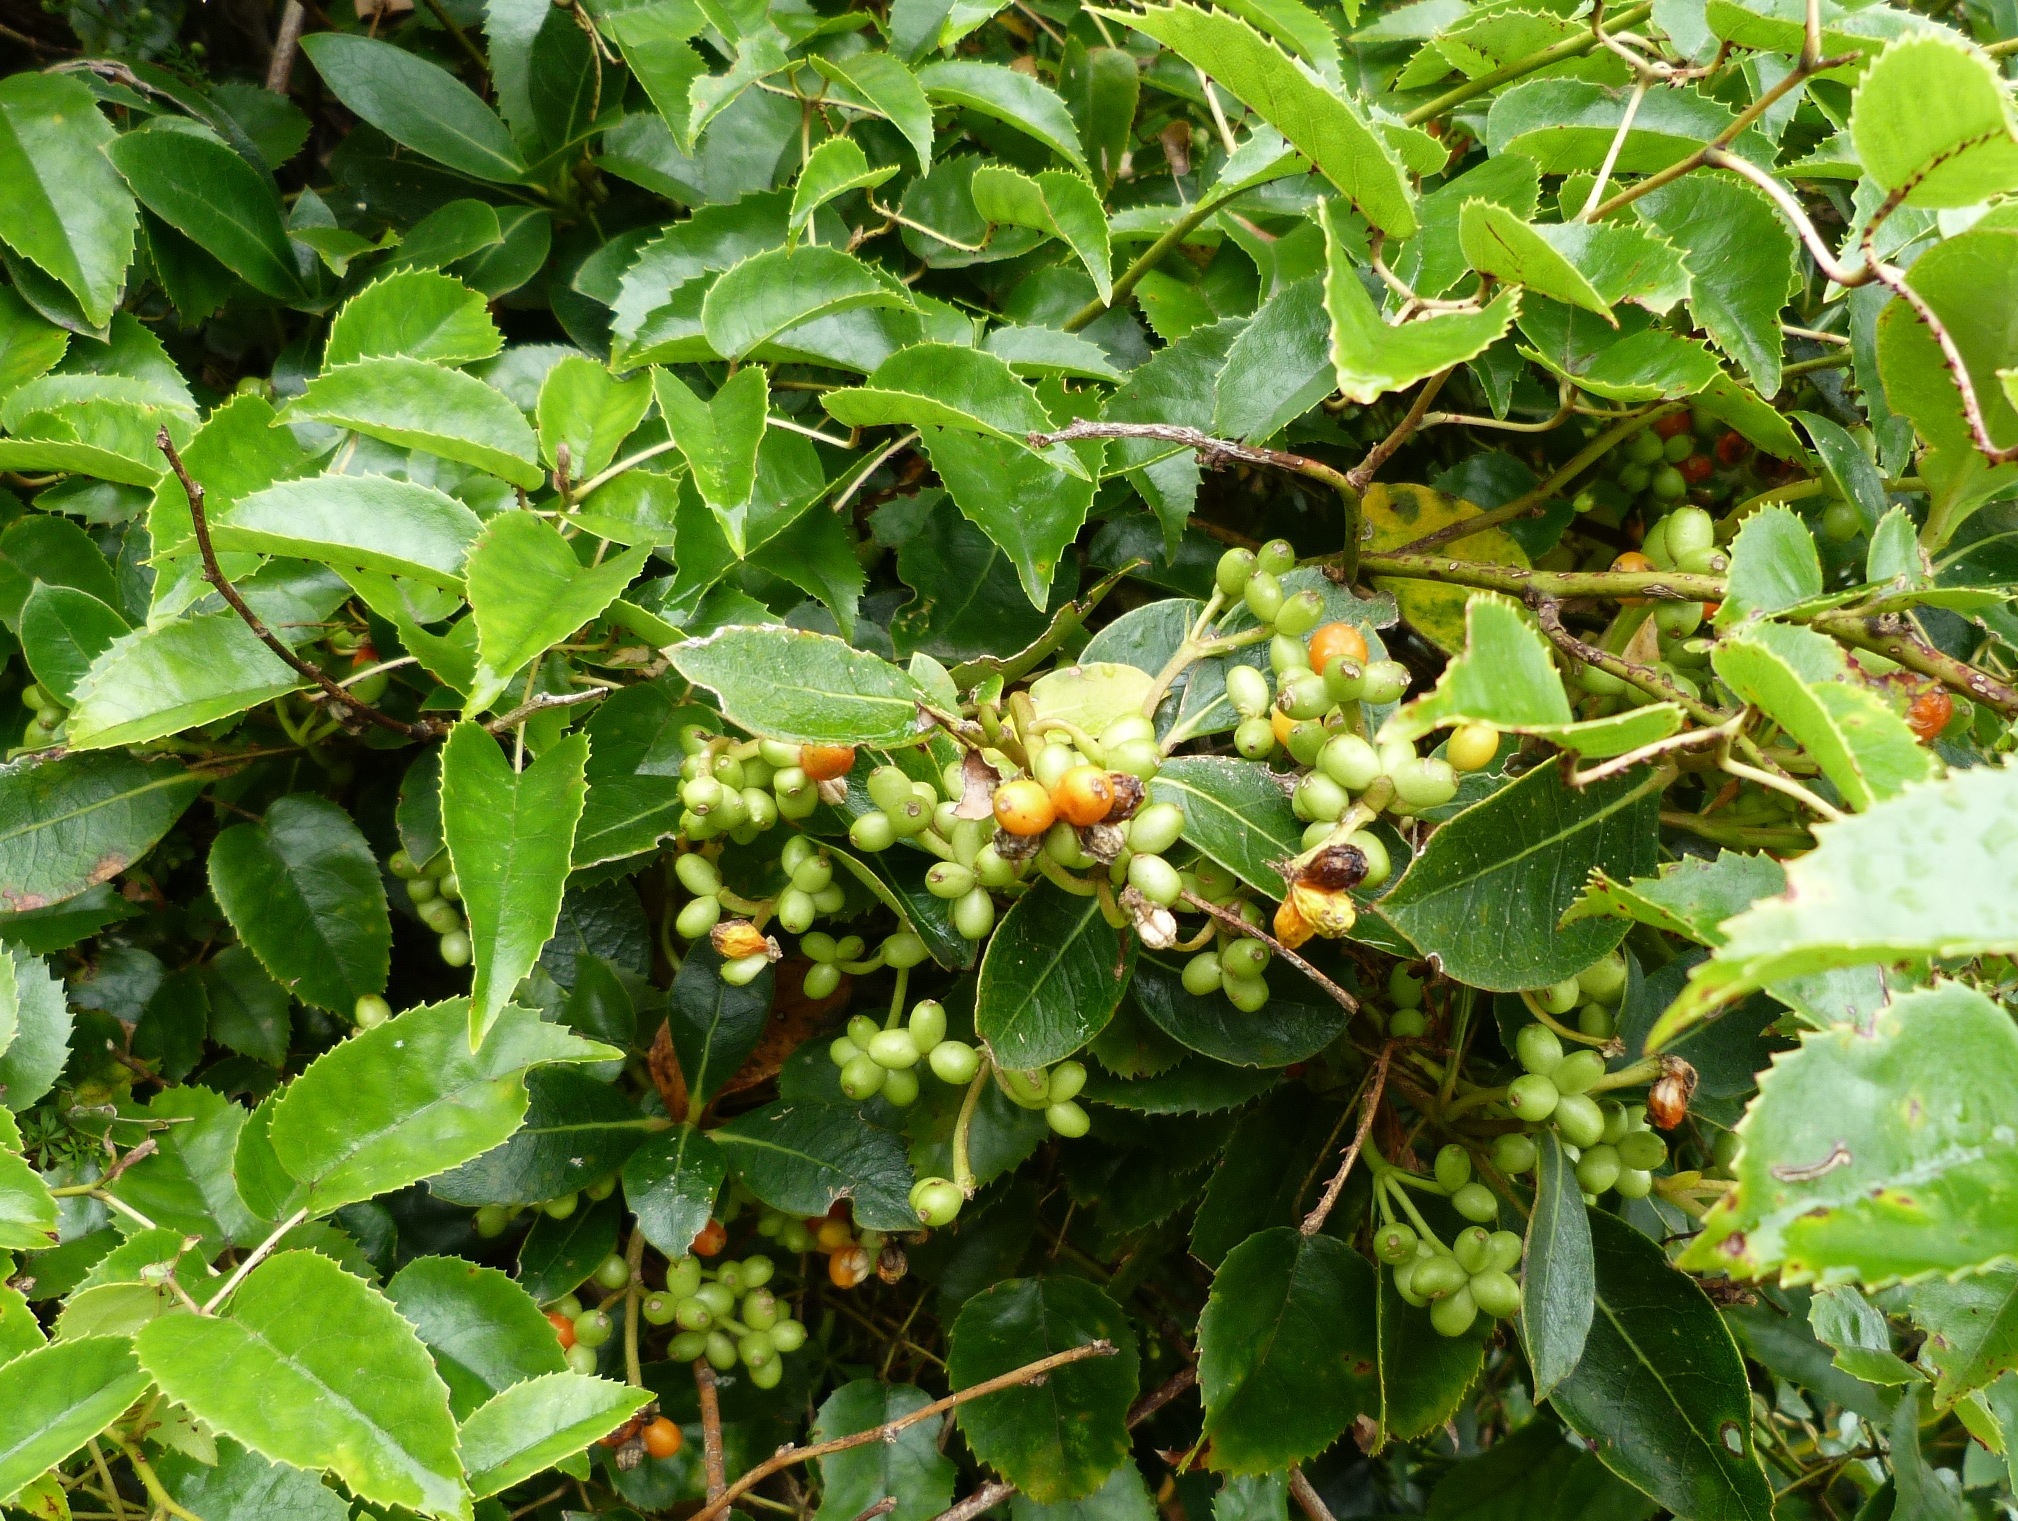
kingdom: Plantae
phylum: Tracheophyta
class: Magnoliopsida
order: Gentianales
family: Rubiaceae
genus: Coprosma
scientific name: Coprosma lucida
